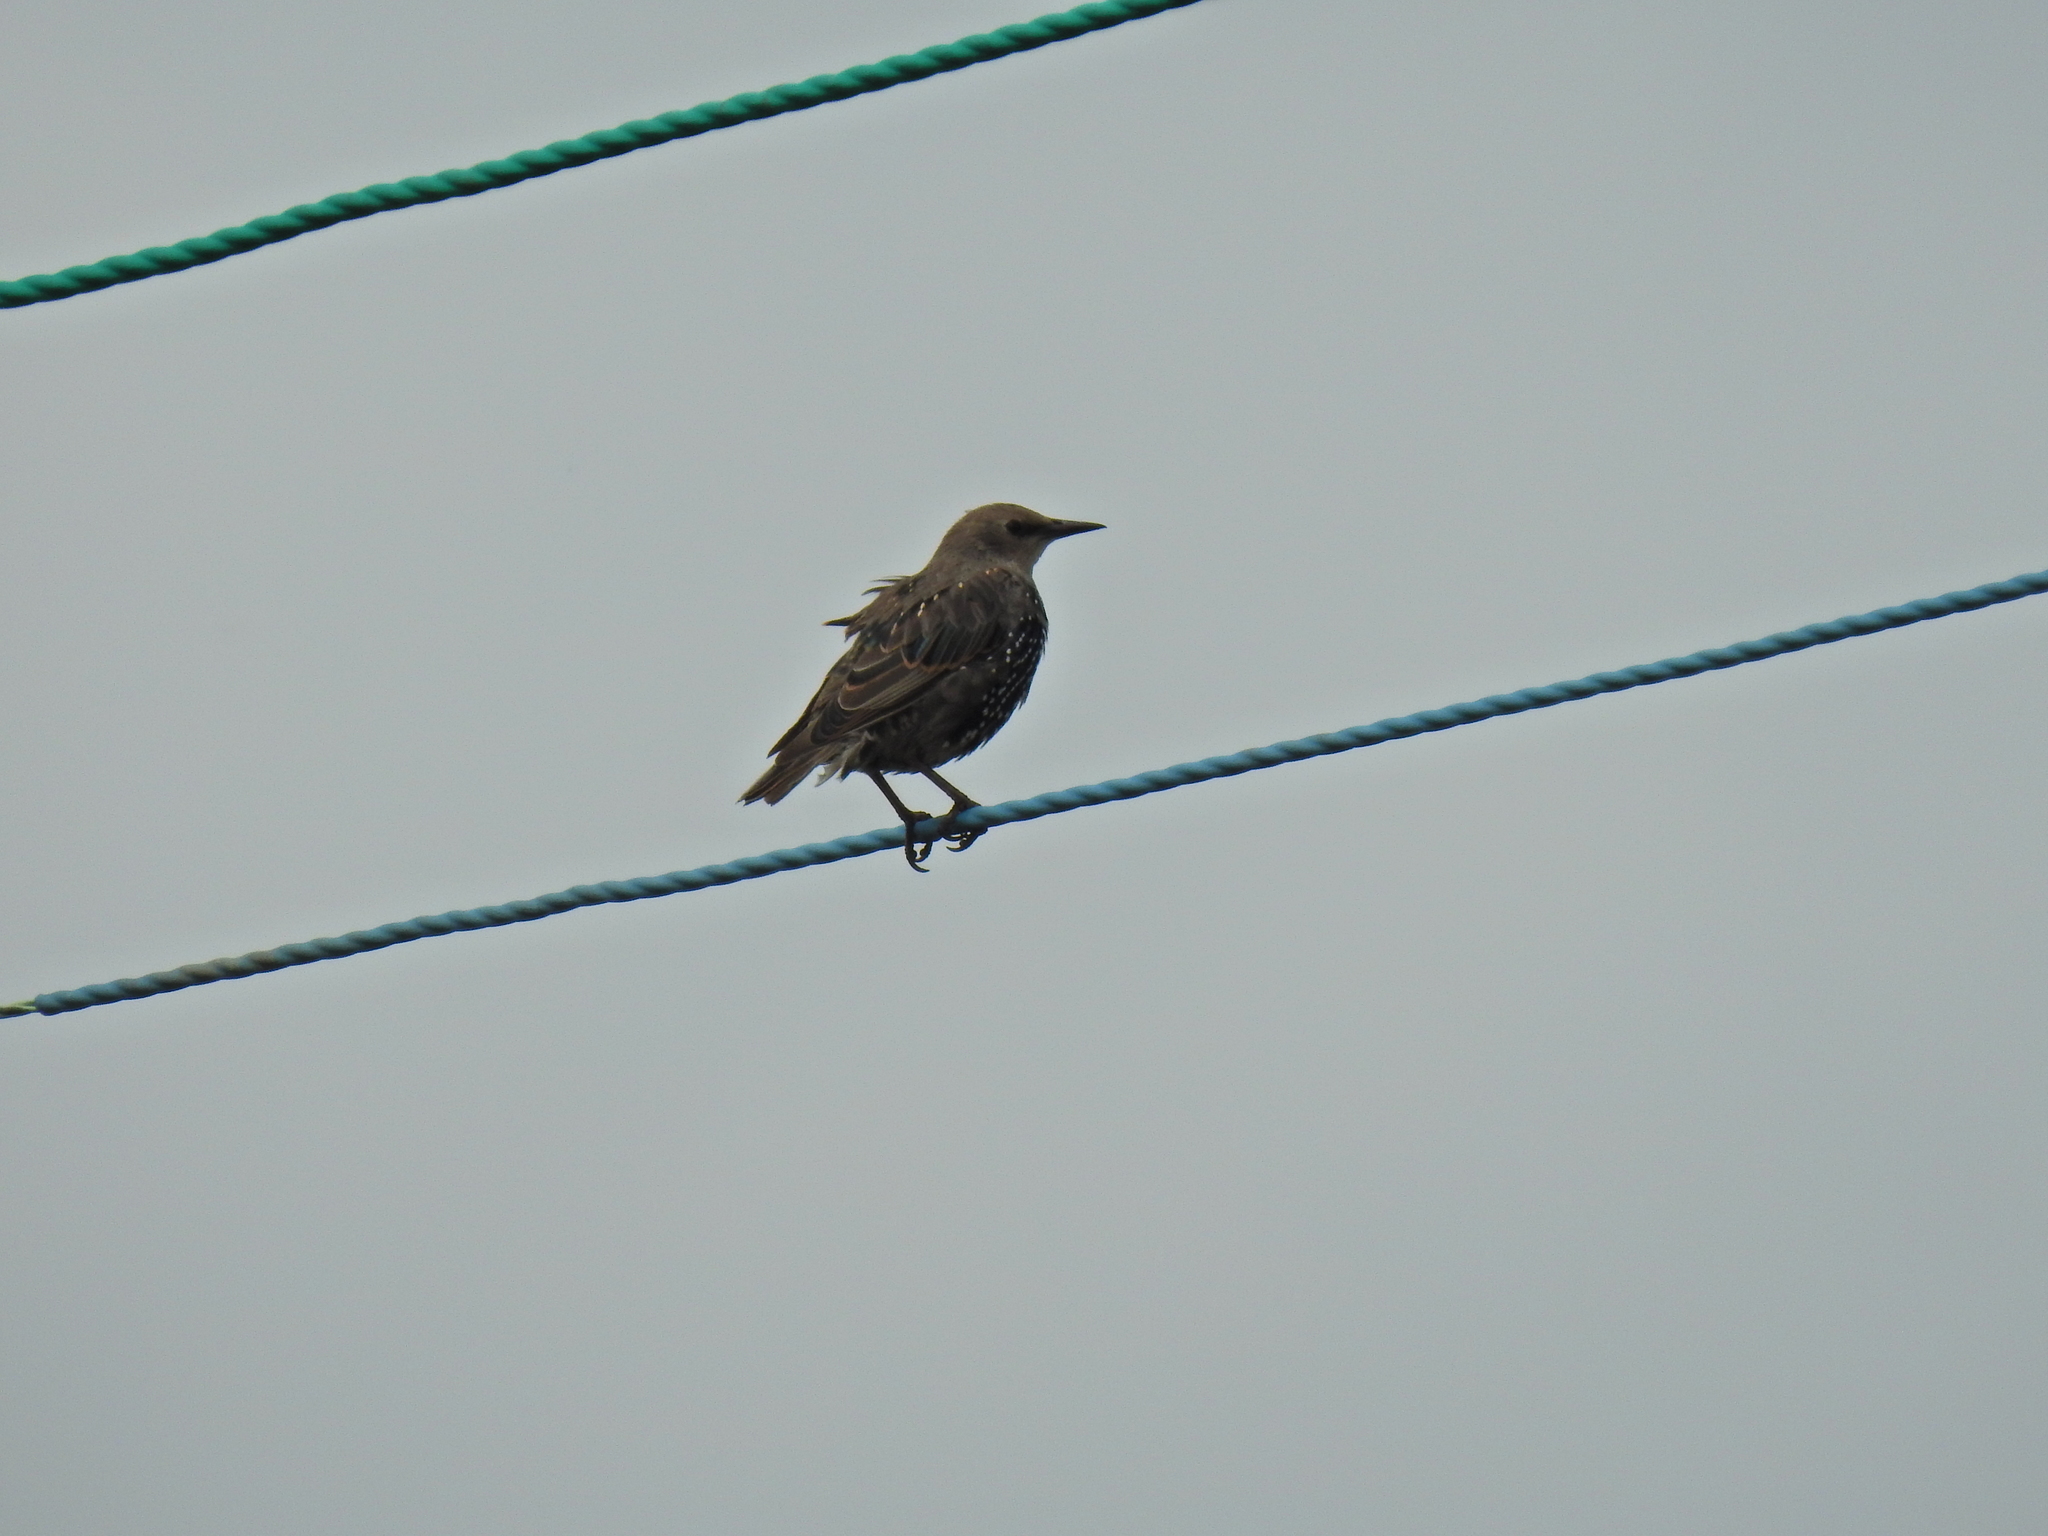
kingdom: Animalia
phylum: Chordata
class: Aves
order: Passeriformes
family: Sturnidae
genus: Sturnus
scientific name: Sturnus vulgaris
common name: Common starling
